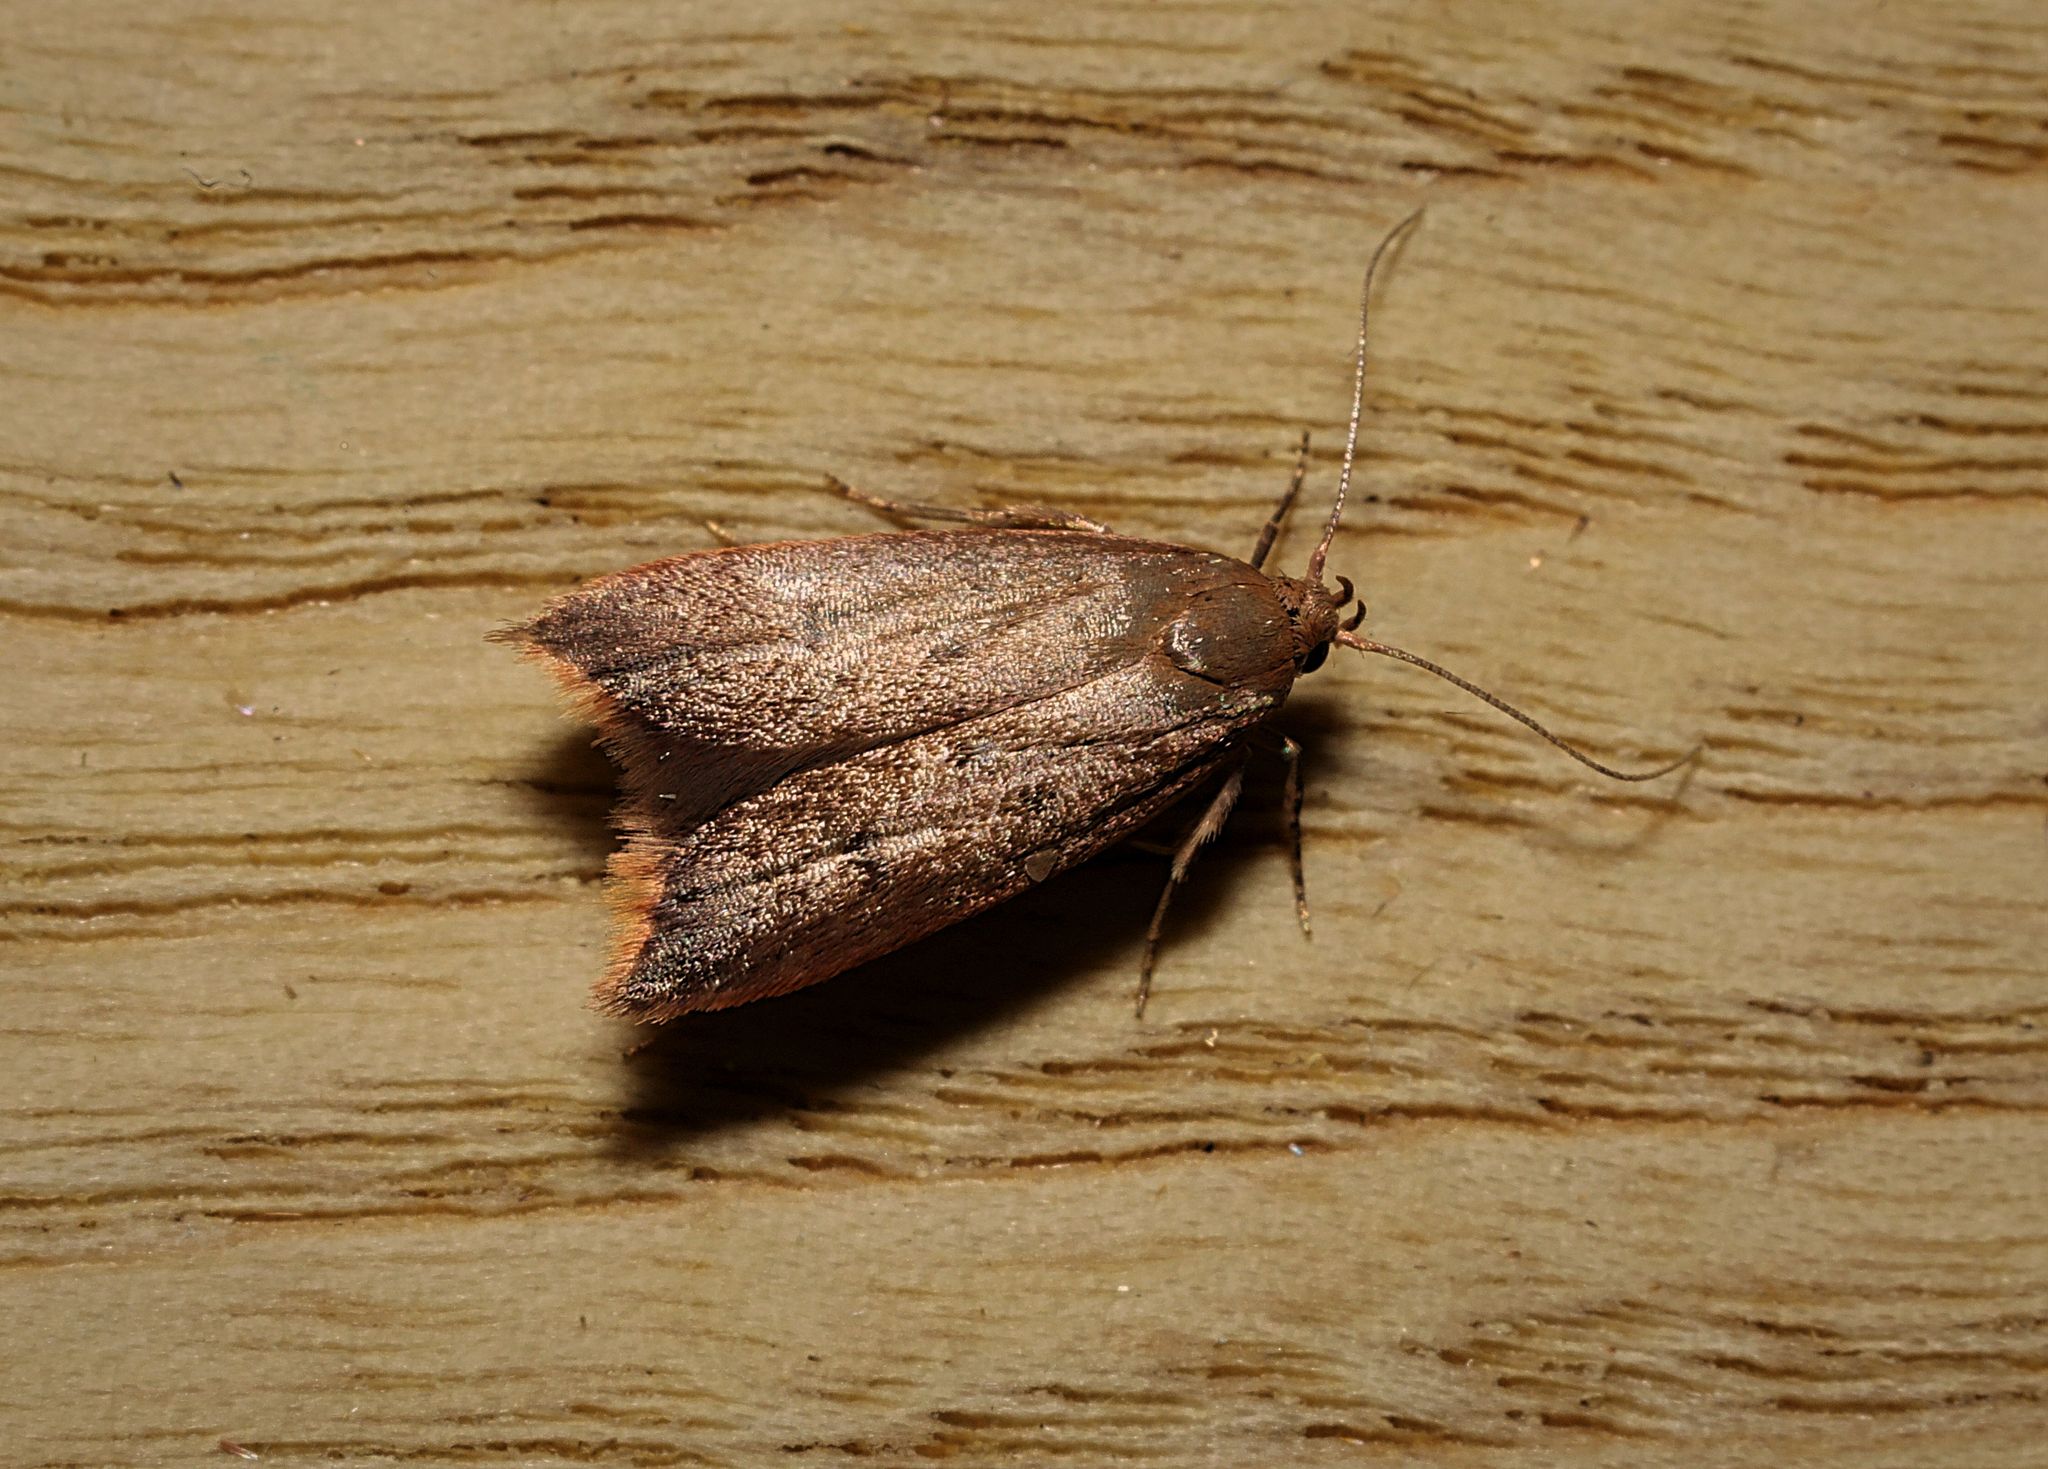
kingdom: Animalia
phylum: Arthropoda
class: Insecta
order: Lepidoptera
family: Oecophoridae
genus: Tachystola
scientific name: Tachystola acroxantha
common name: Ruddy streak
